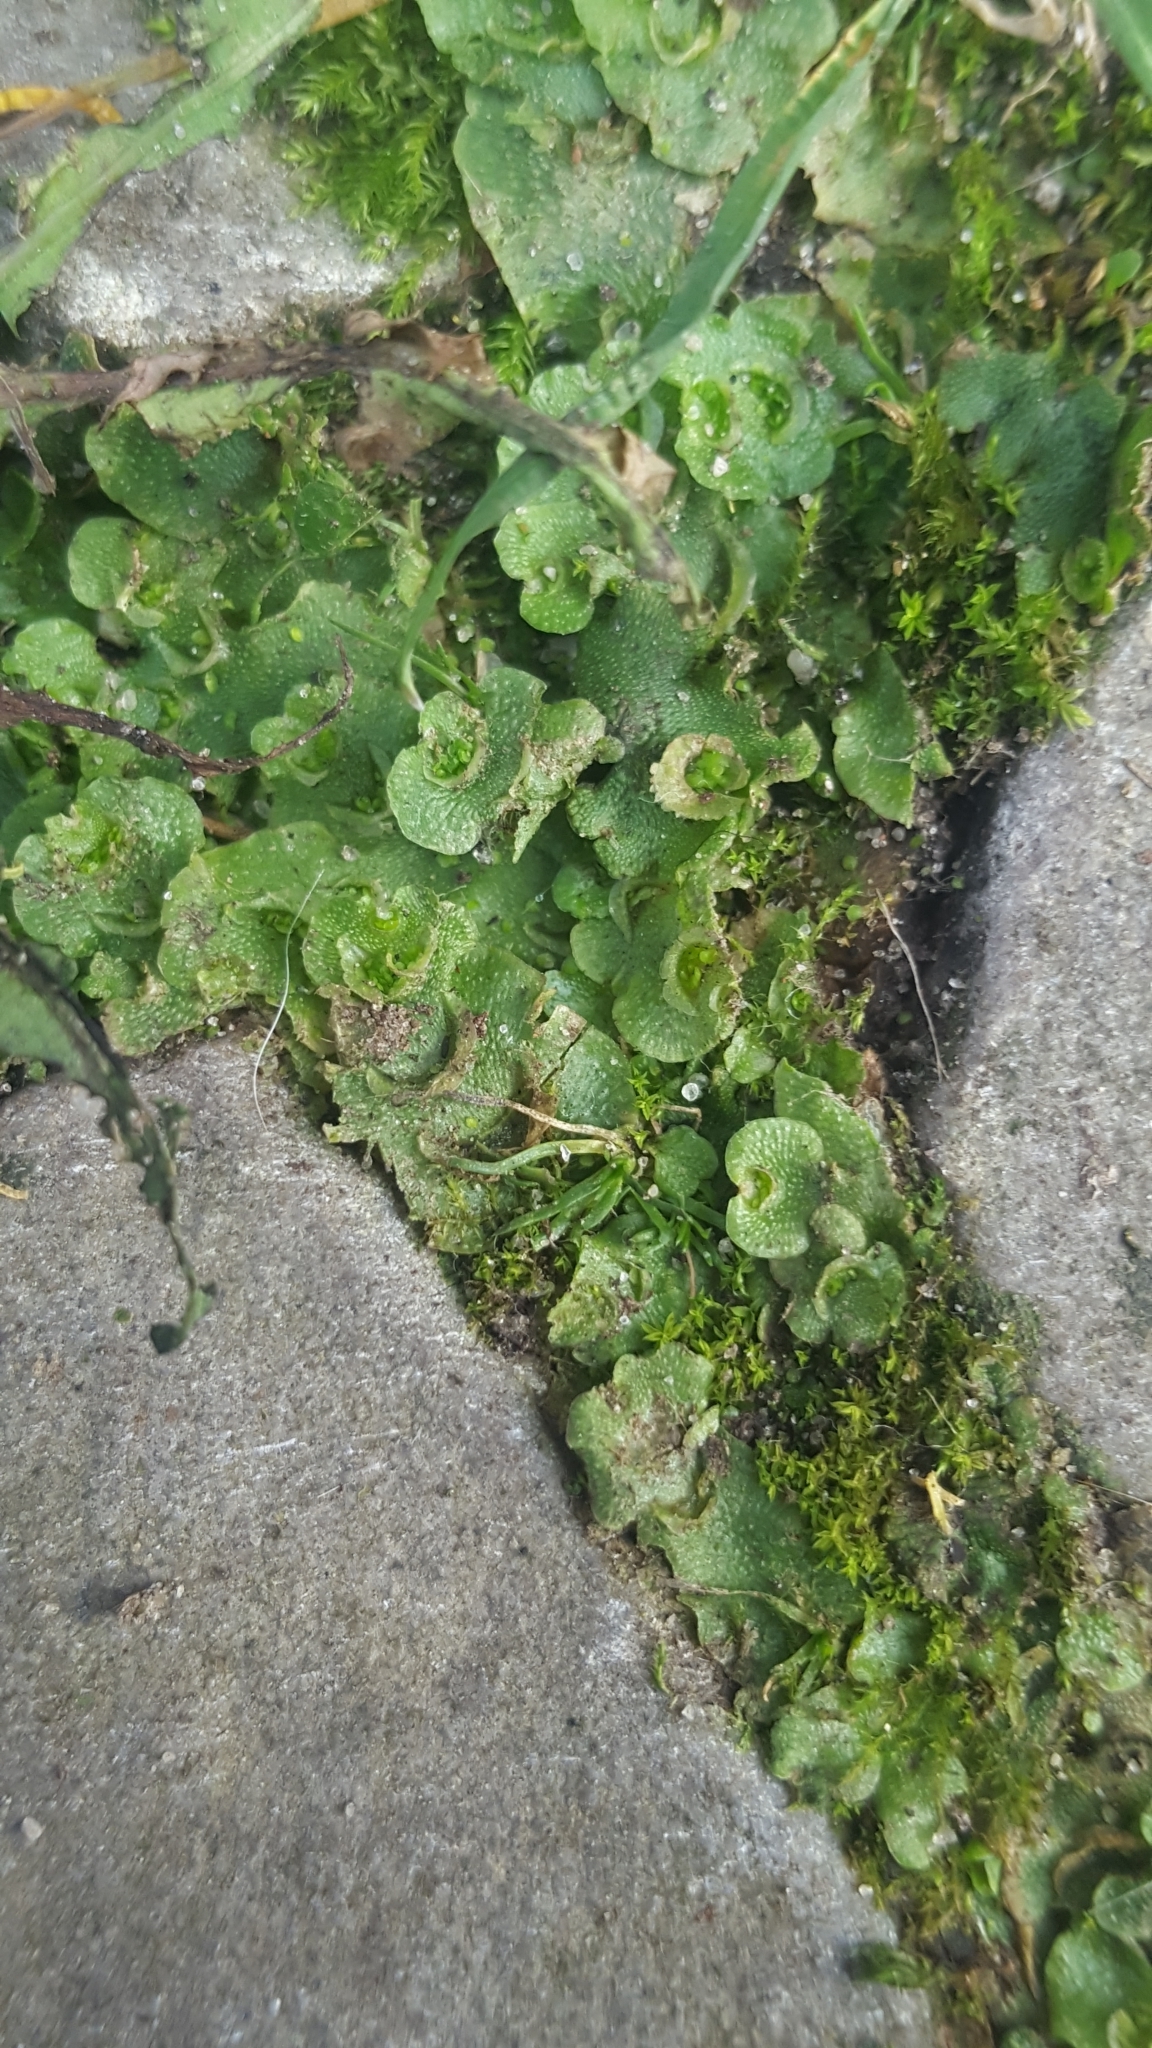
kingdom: Plantae
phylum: Marchantiophyta
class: Marchantiopsida
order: Lunulariales
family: Lunulariaceae
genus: Lunularia
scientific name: Lunularia cruciata
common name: Crescent-cup liverwort
